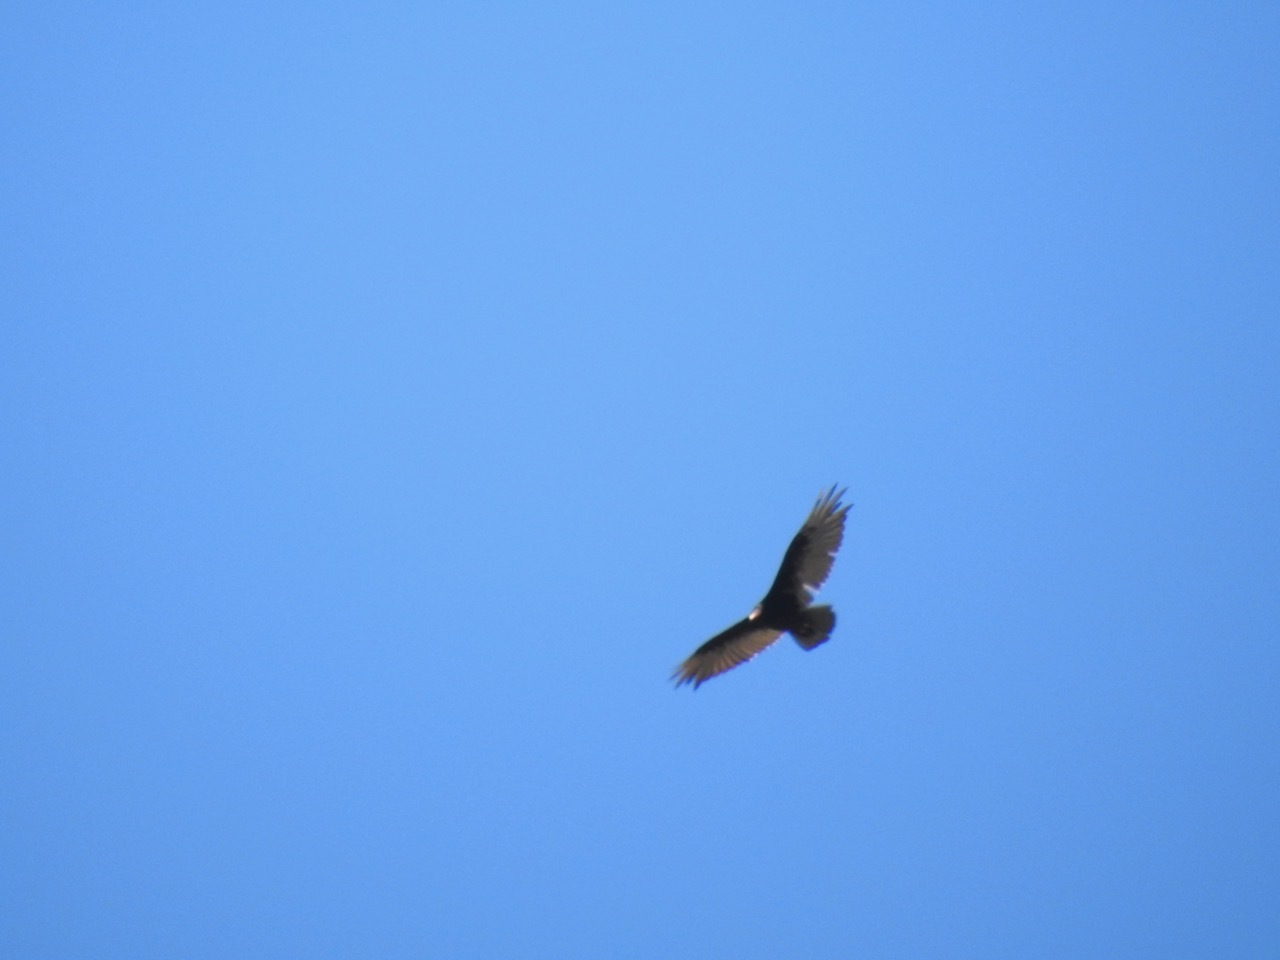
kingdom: Animalia
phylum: Chordata
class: Aves
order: Accipitriformes
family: Cathartidae
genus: Cathartes
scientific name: Cathartes aura
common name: Turkey vulture
